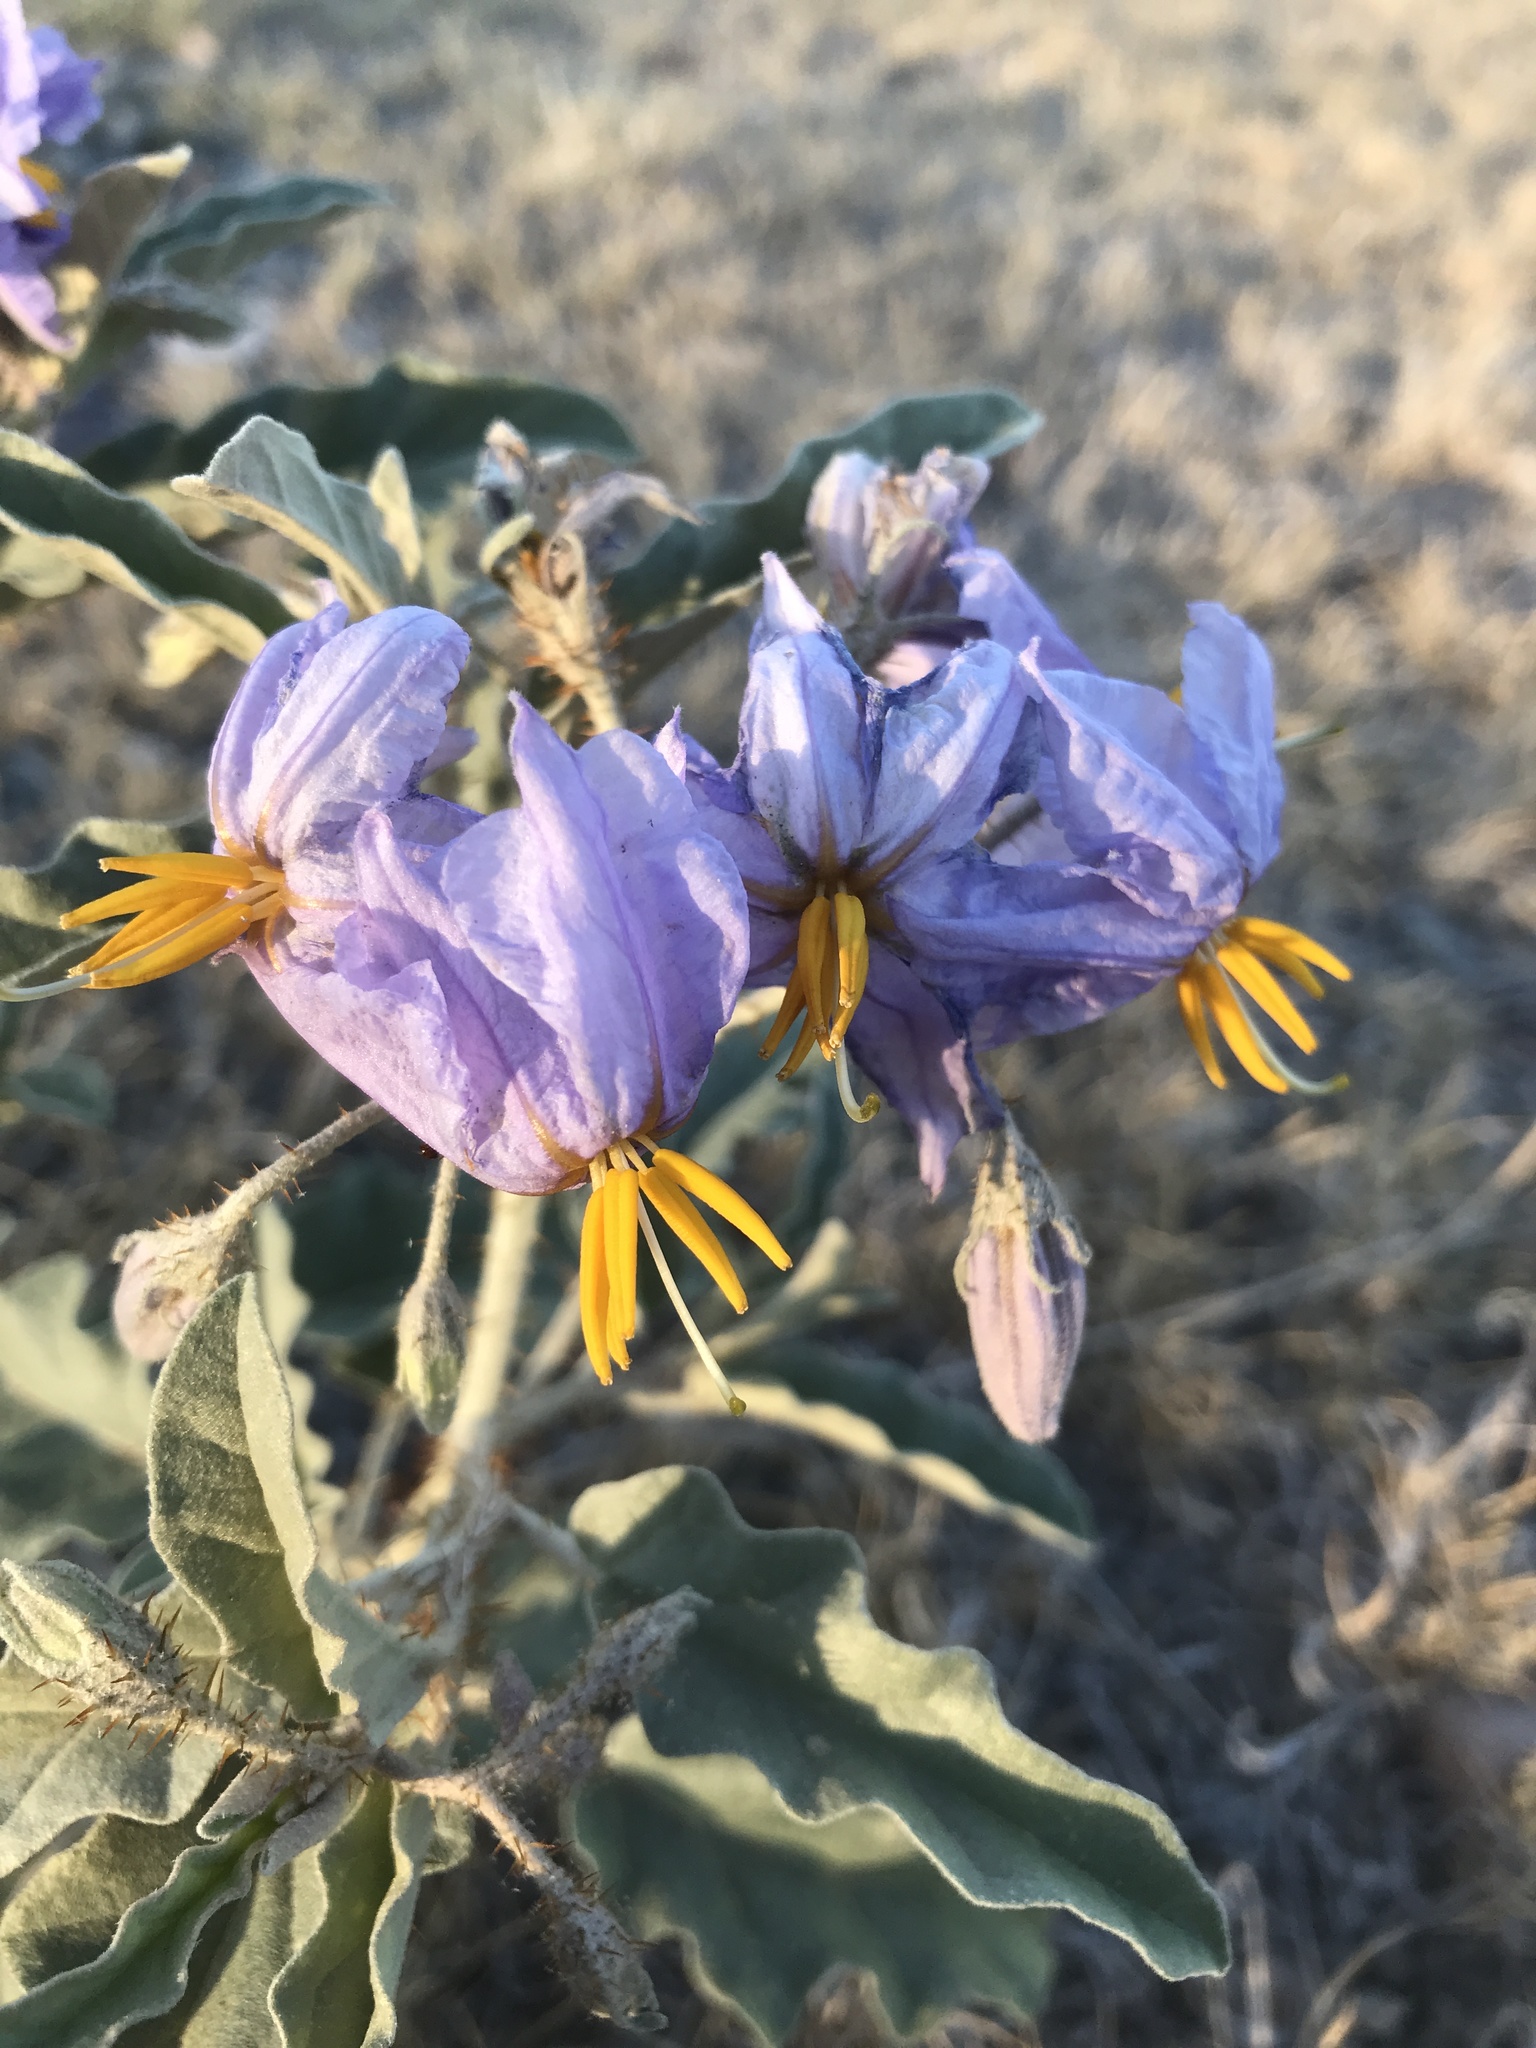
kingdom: Plantae
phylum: Tracheophyta
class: Magnoliopsida
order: Solanales
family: Solanaceae
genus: Solanum
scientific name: Solanum elaeagnifolium
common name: Silverleaf nightshade
